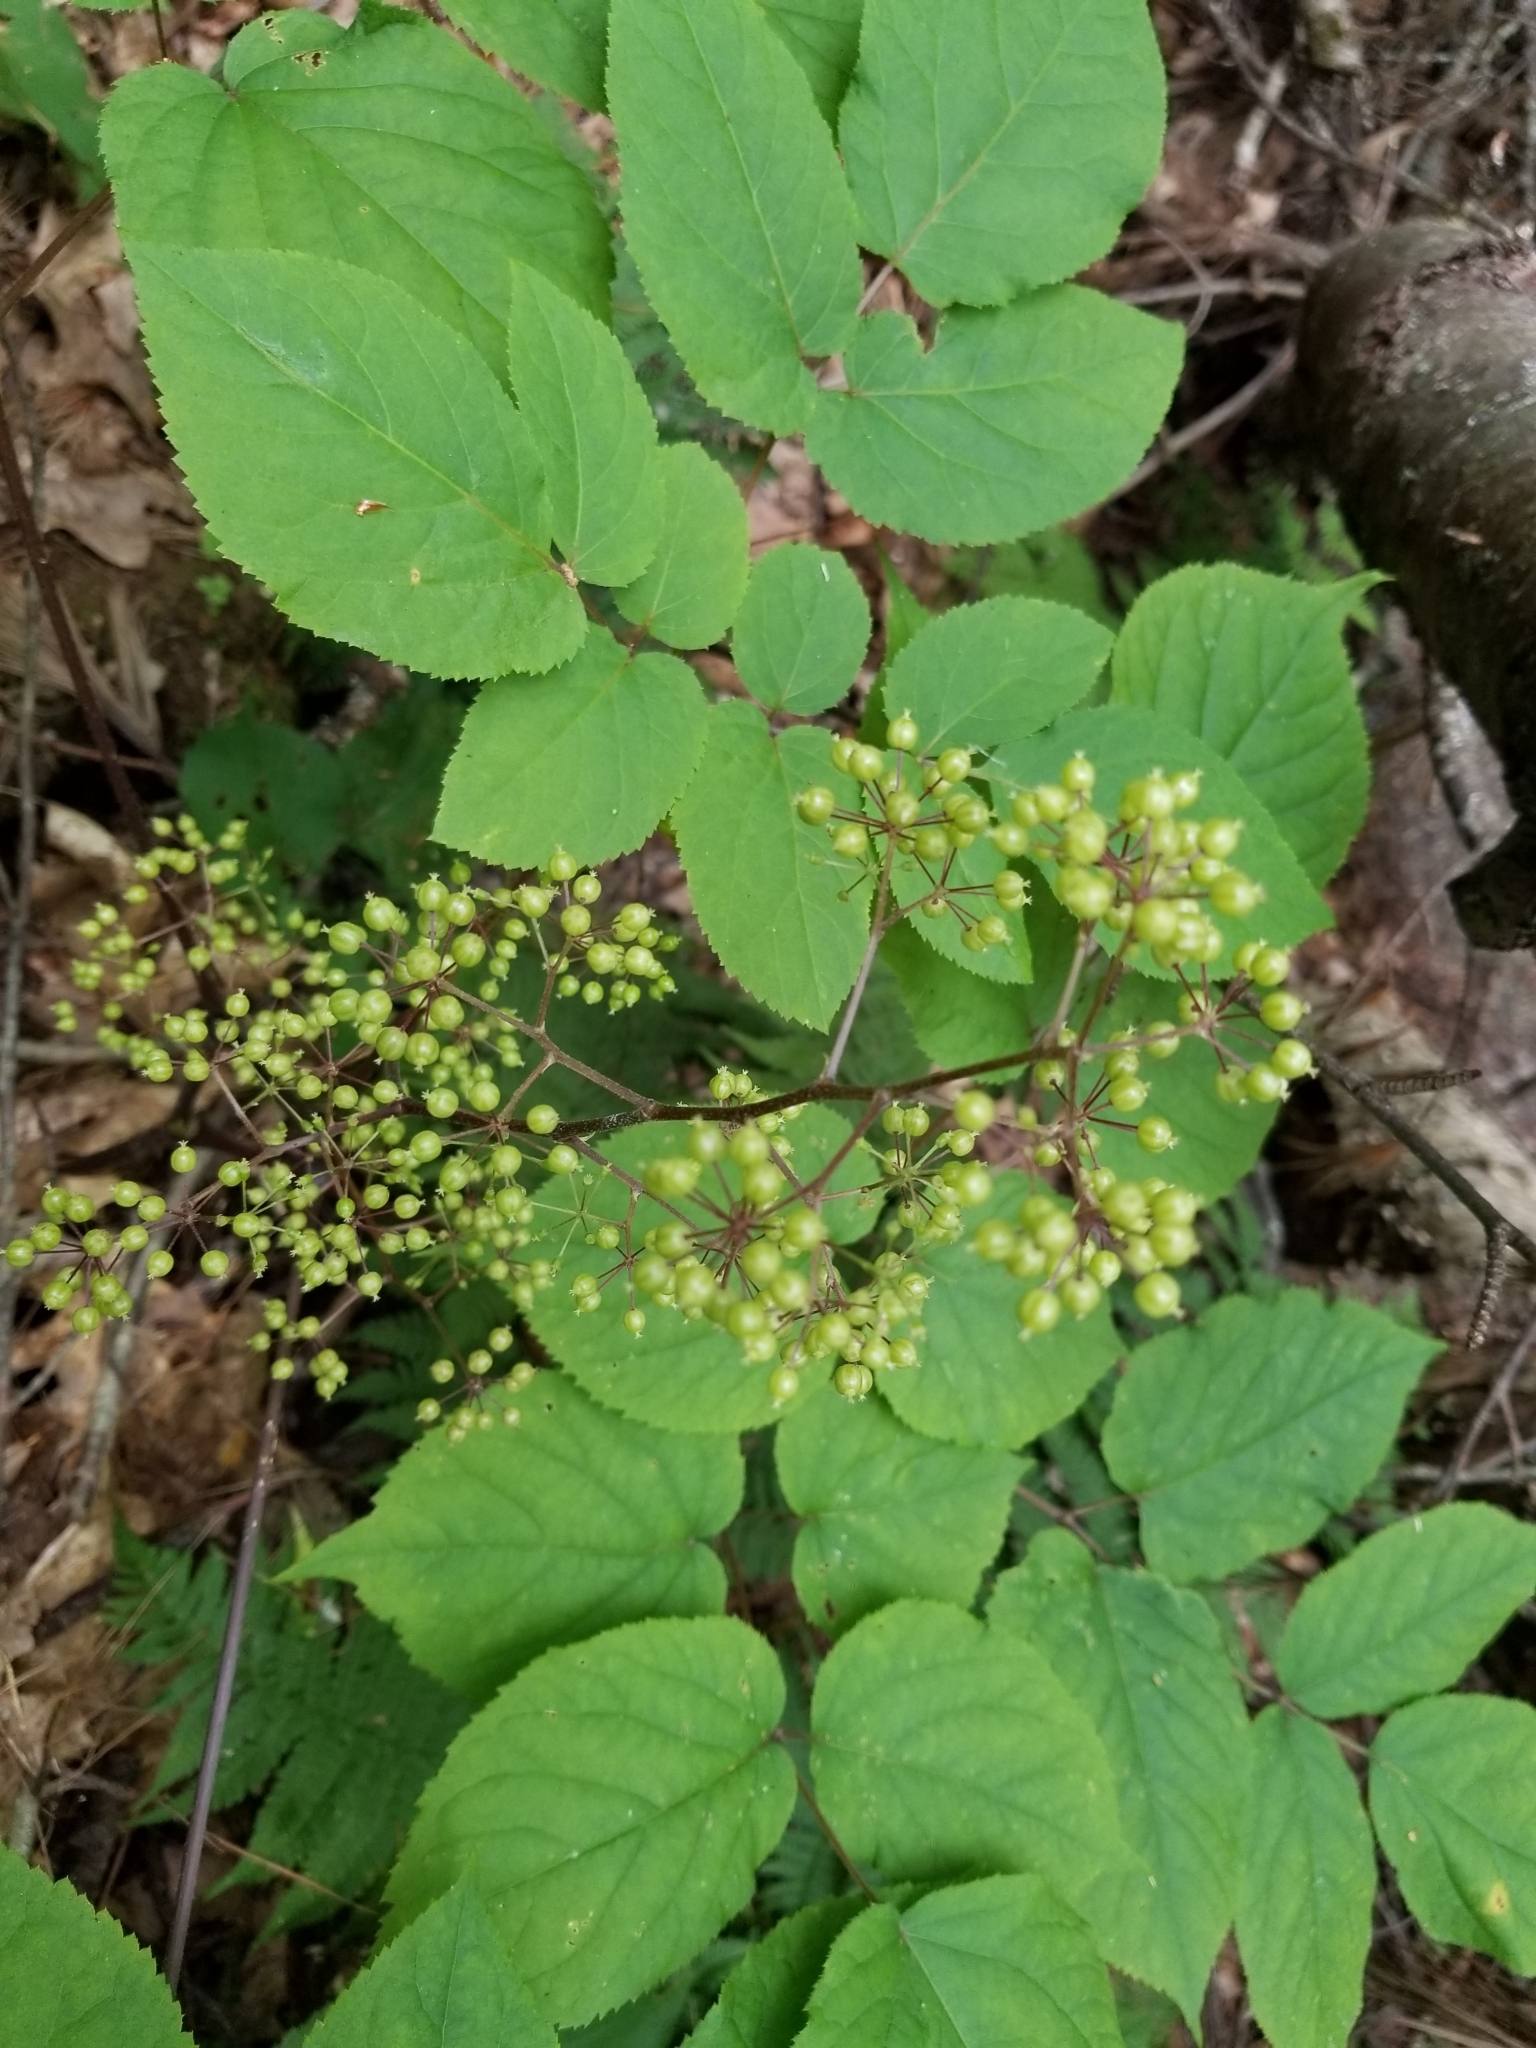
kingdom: Plantae
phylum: Tracheophyta
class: Magnoliopsida
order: Apiales
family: Araliaceae
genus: Aralia
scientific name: Aralia racemosa
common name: American-spikenard
